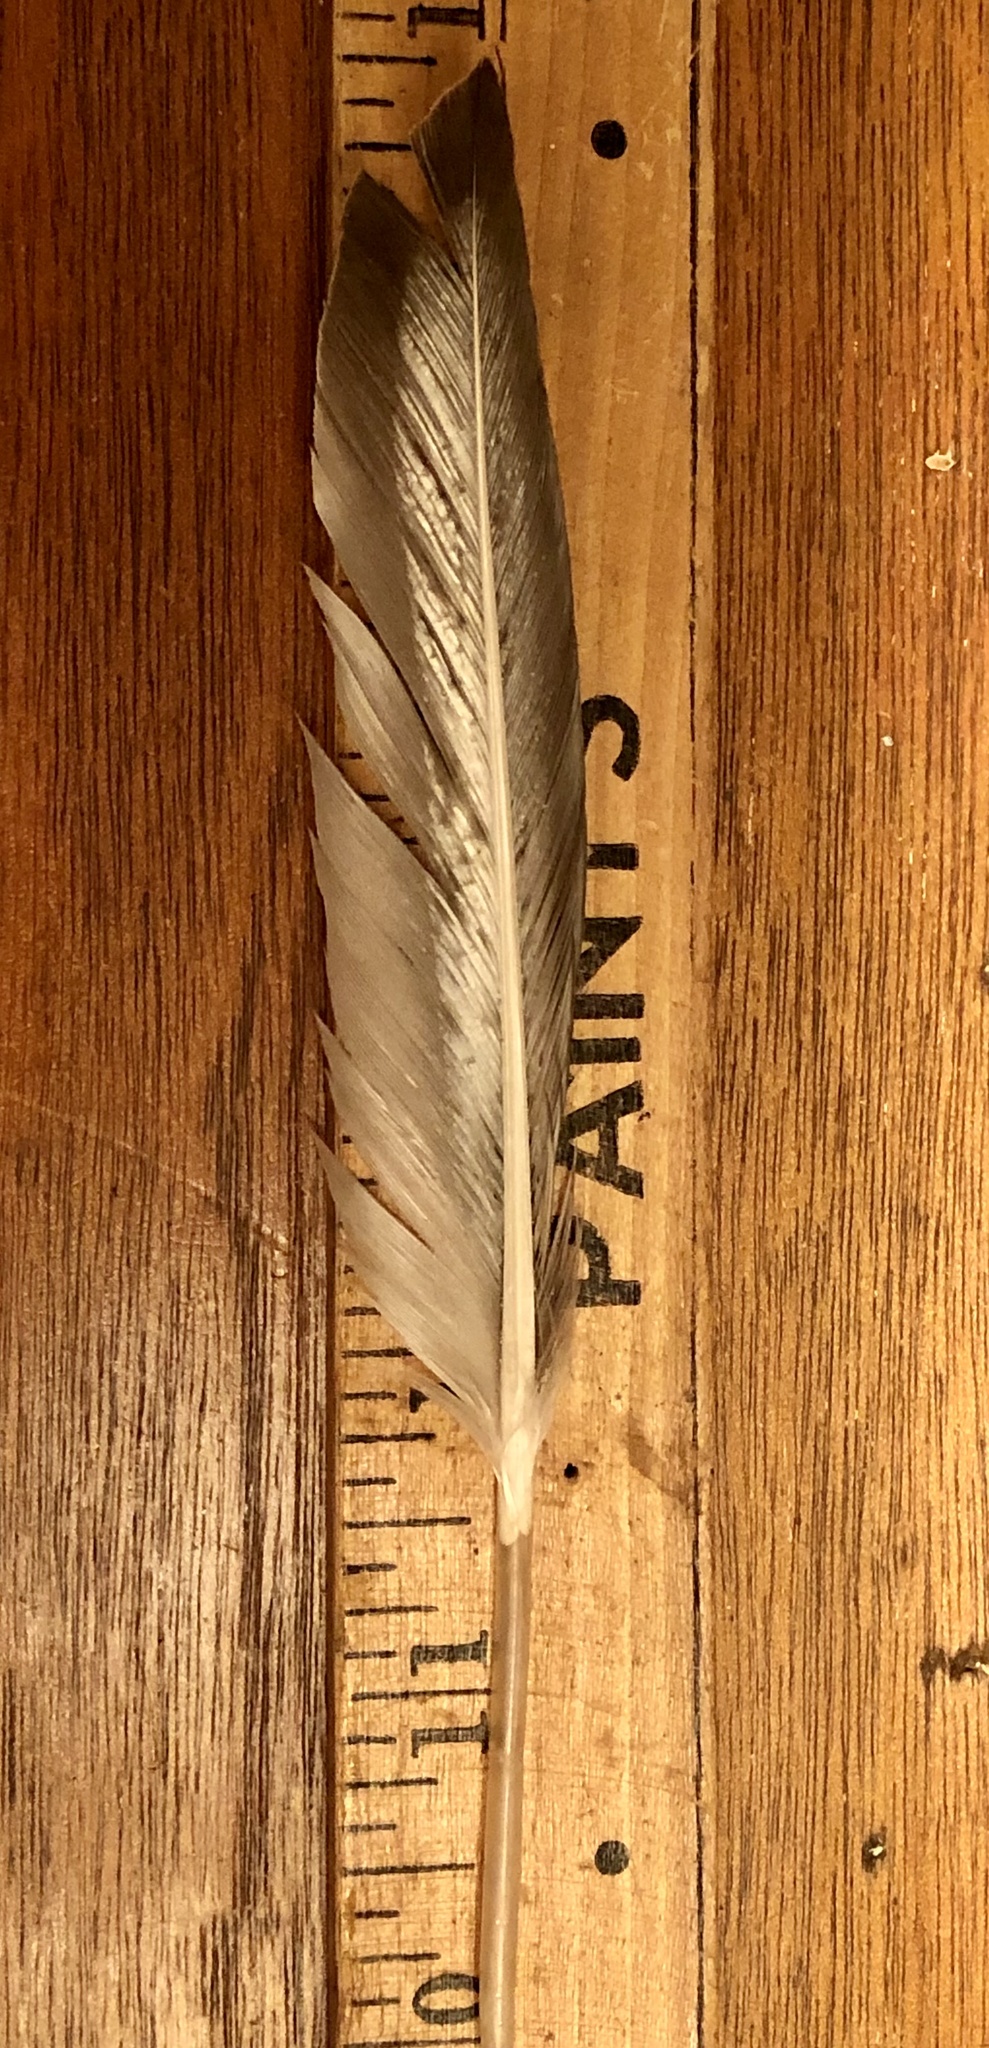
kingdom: Animalia
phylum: Chordata
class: Aves
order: Anseriformes
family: Anatidae
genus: Anas
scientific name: Anas platyrhynchos
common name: Mallard
